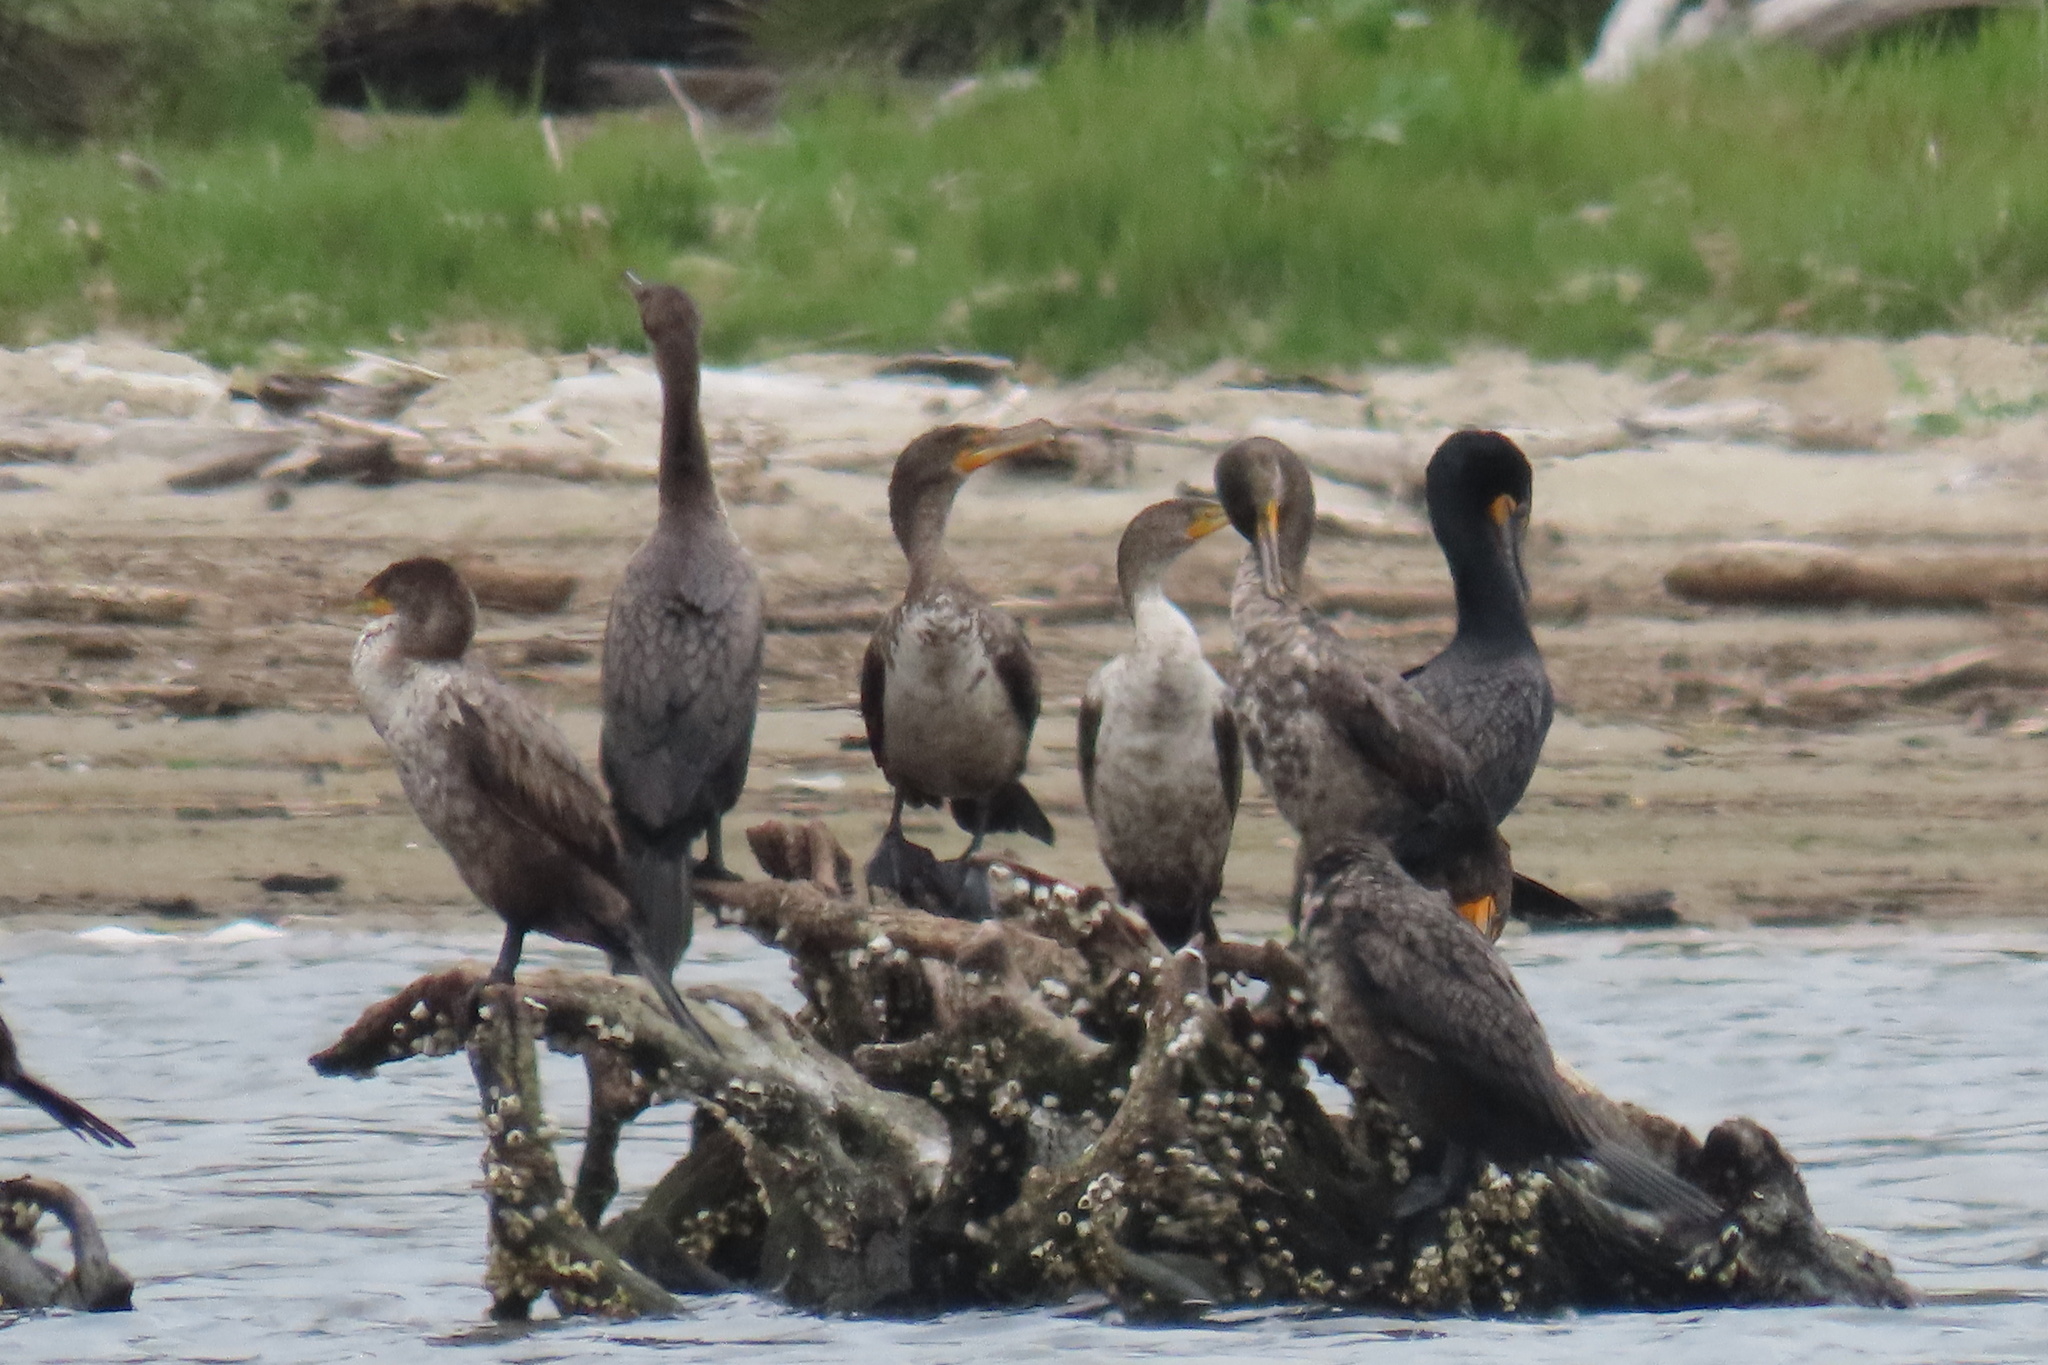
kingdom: Animalia
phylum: Chordata
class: Aves
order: Suliformes
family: Phalacrocoracidae
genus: Phalacrocorax
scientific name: Phalacrocorax auritus
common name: Double-crested cormorant
